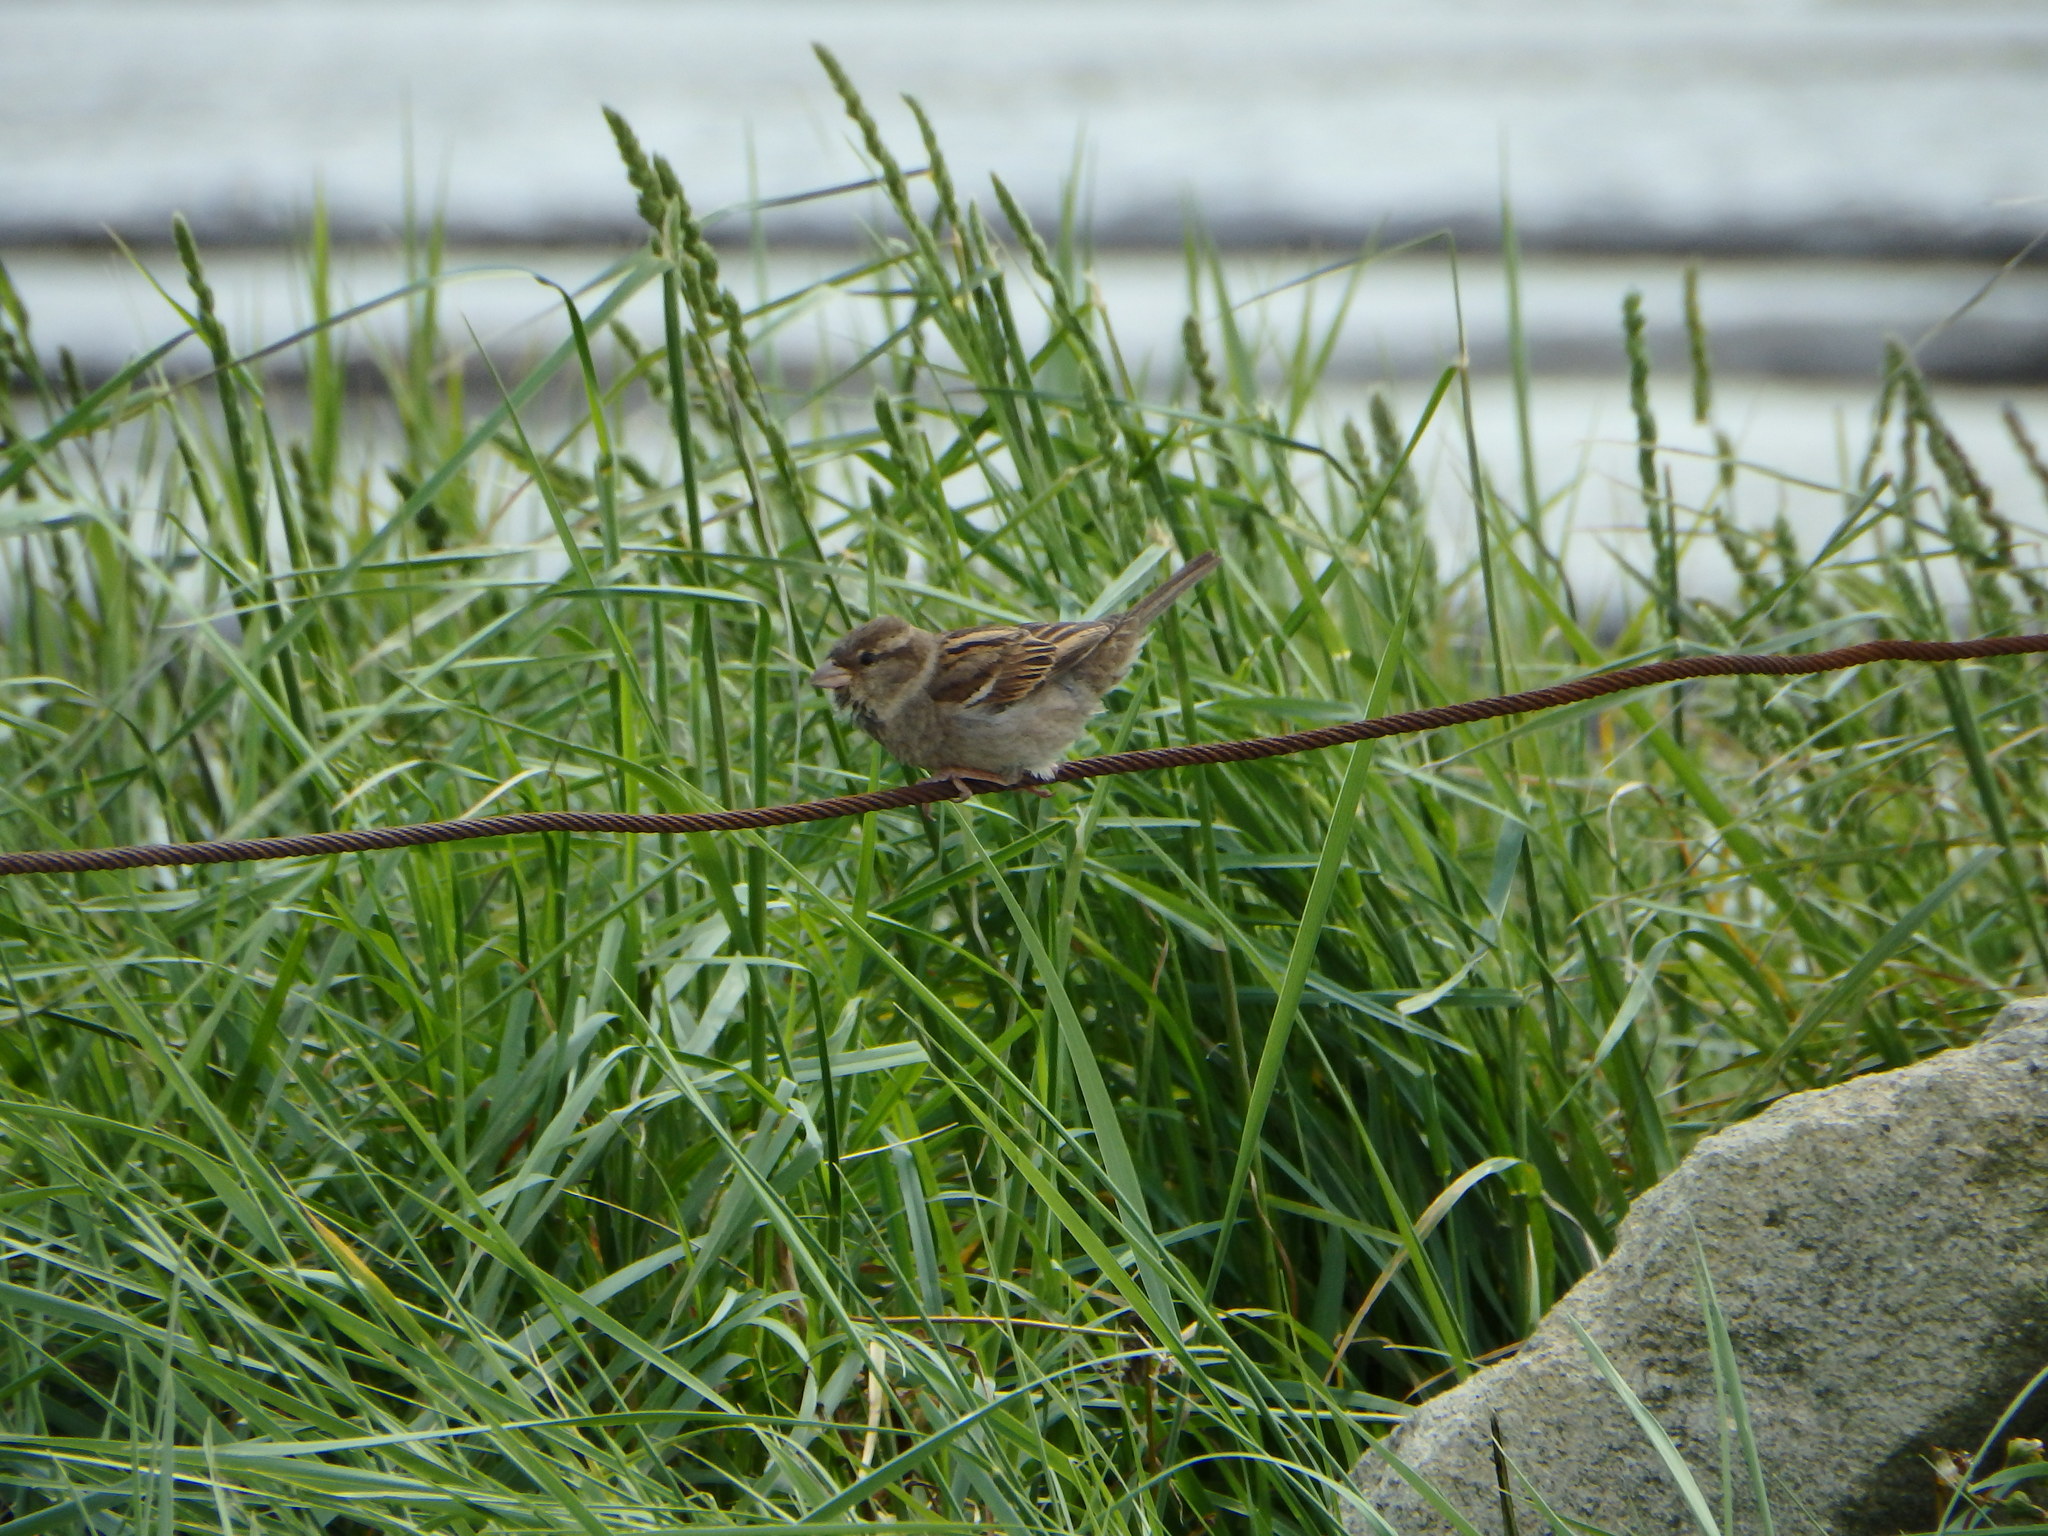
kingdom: Animalia
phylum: Chordata
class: Aves
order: Passeriformes
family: Passeridae
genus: Passer
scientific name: Passer domesticus
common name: House sparrow
